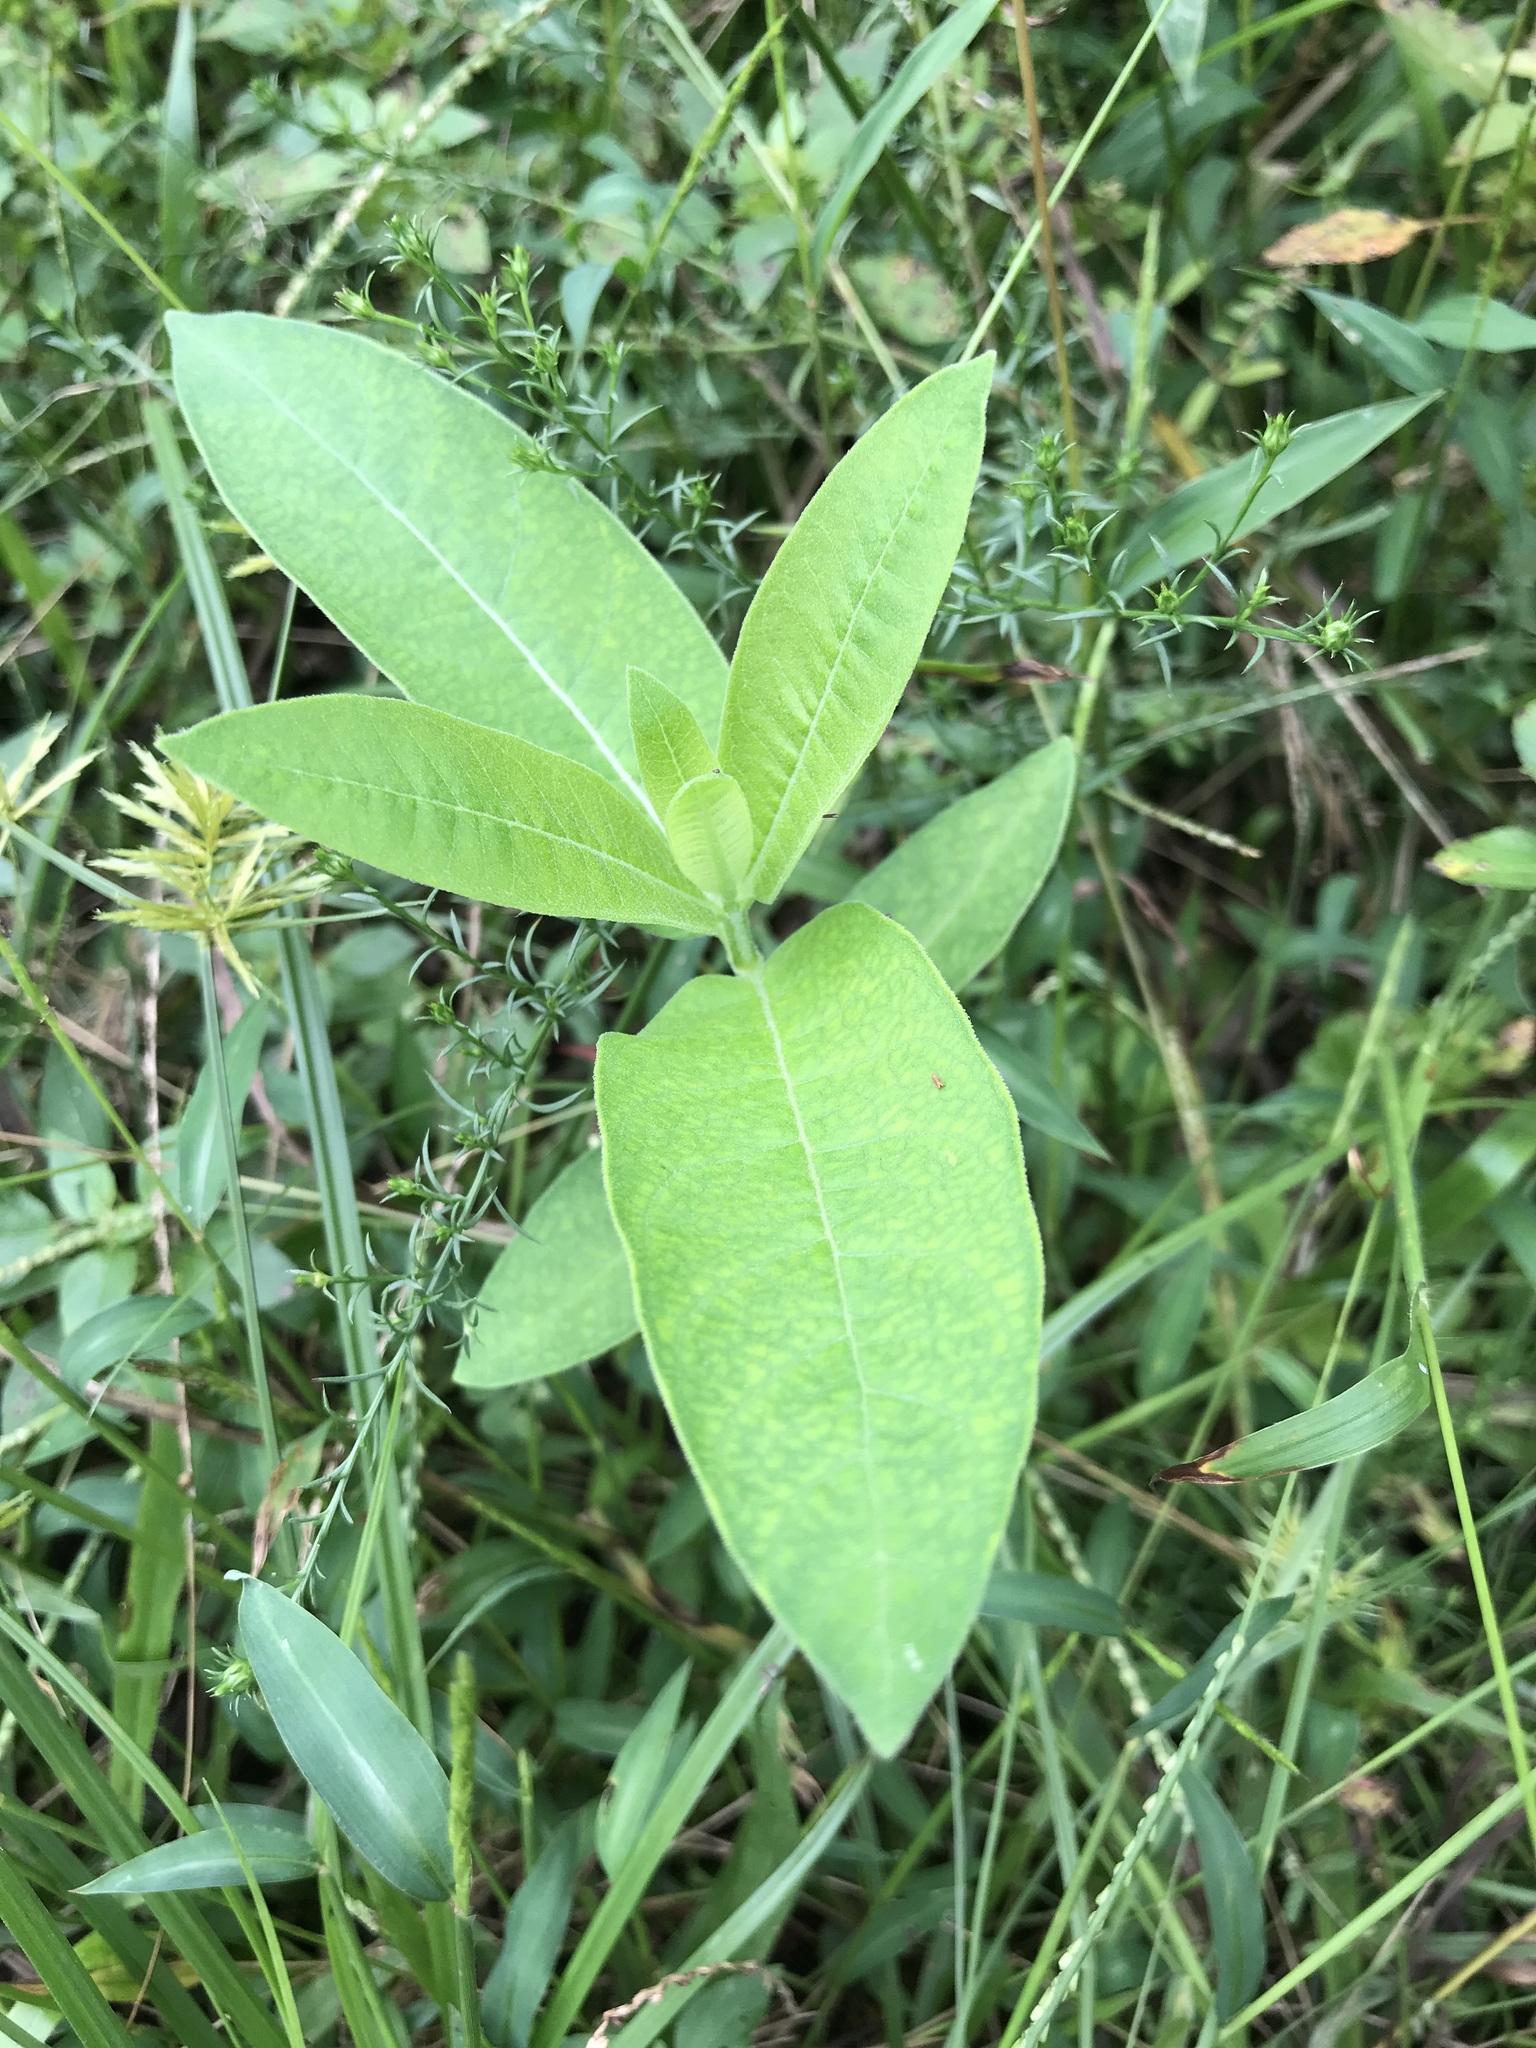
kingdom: Plantae
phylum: Tracheophyta
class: Magnoliopsida
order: Gentianales
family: Apocynaceae
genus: Asclepias
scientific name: Asclepias syriaca
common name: Common milkweed
